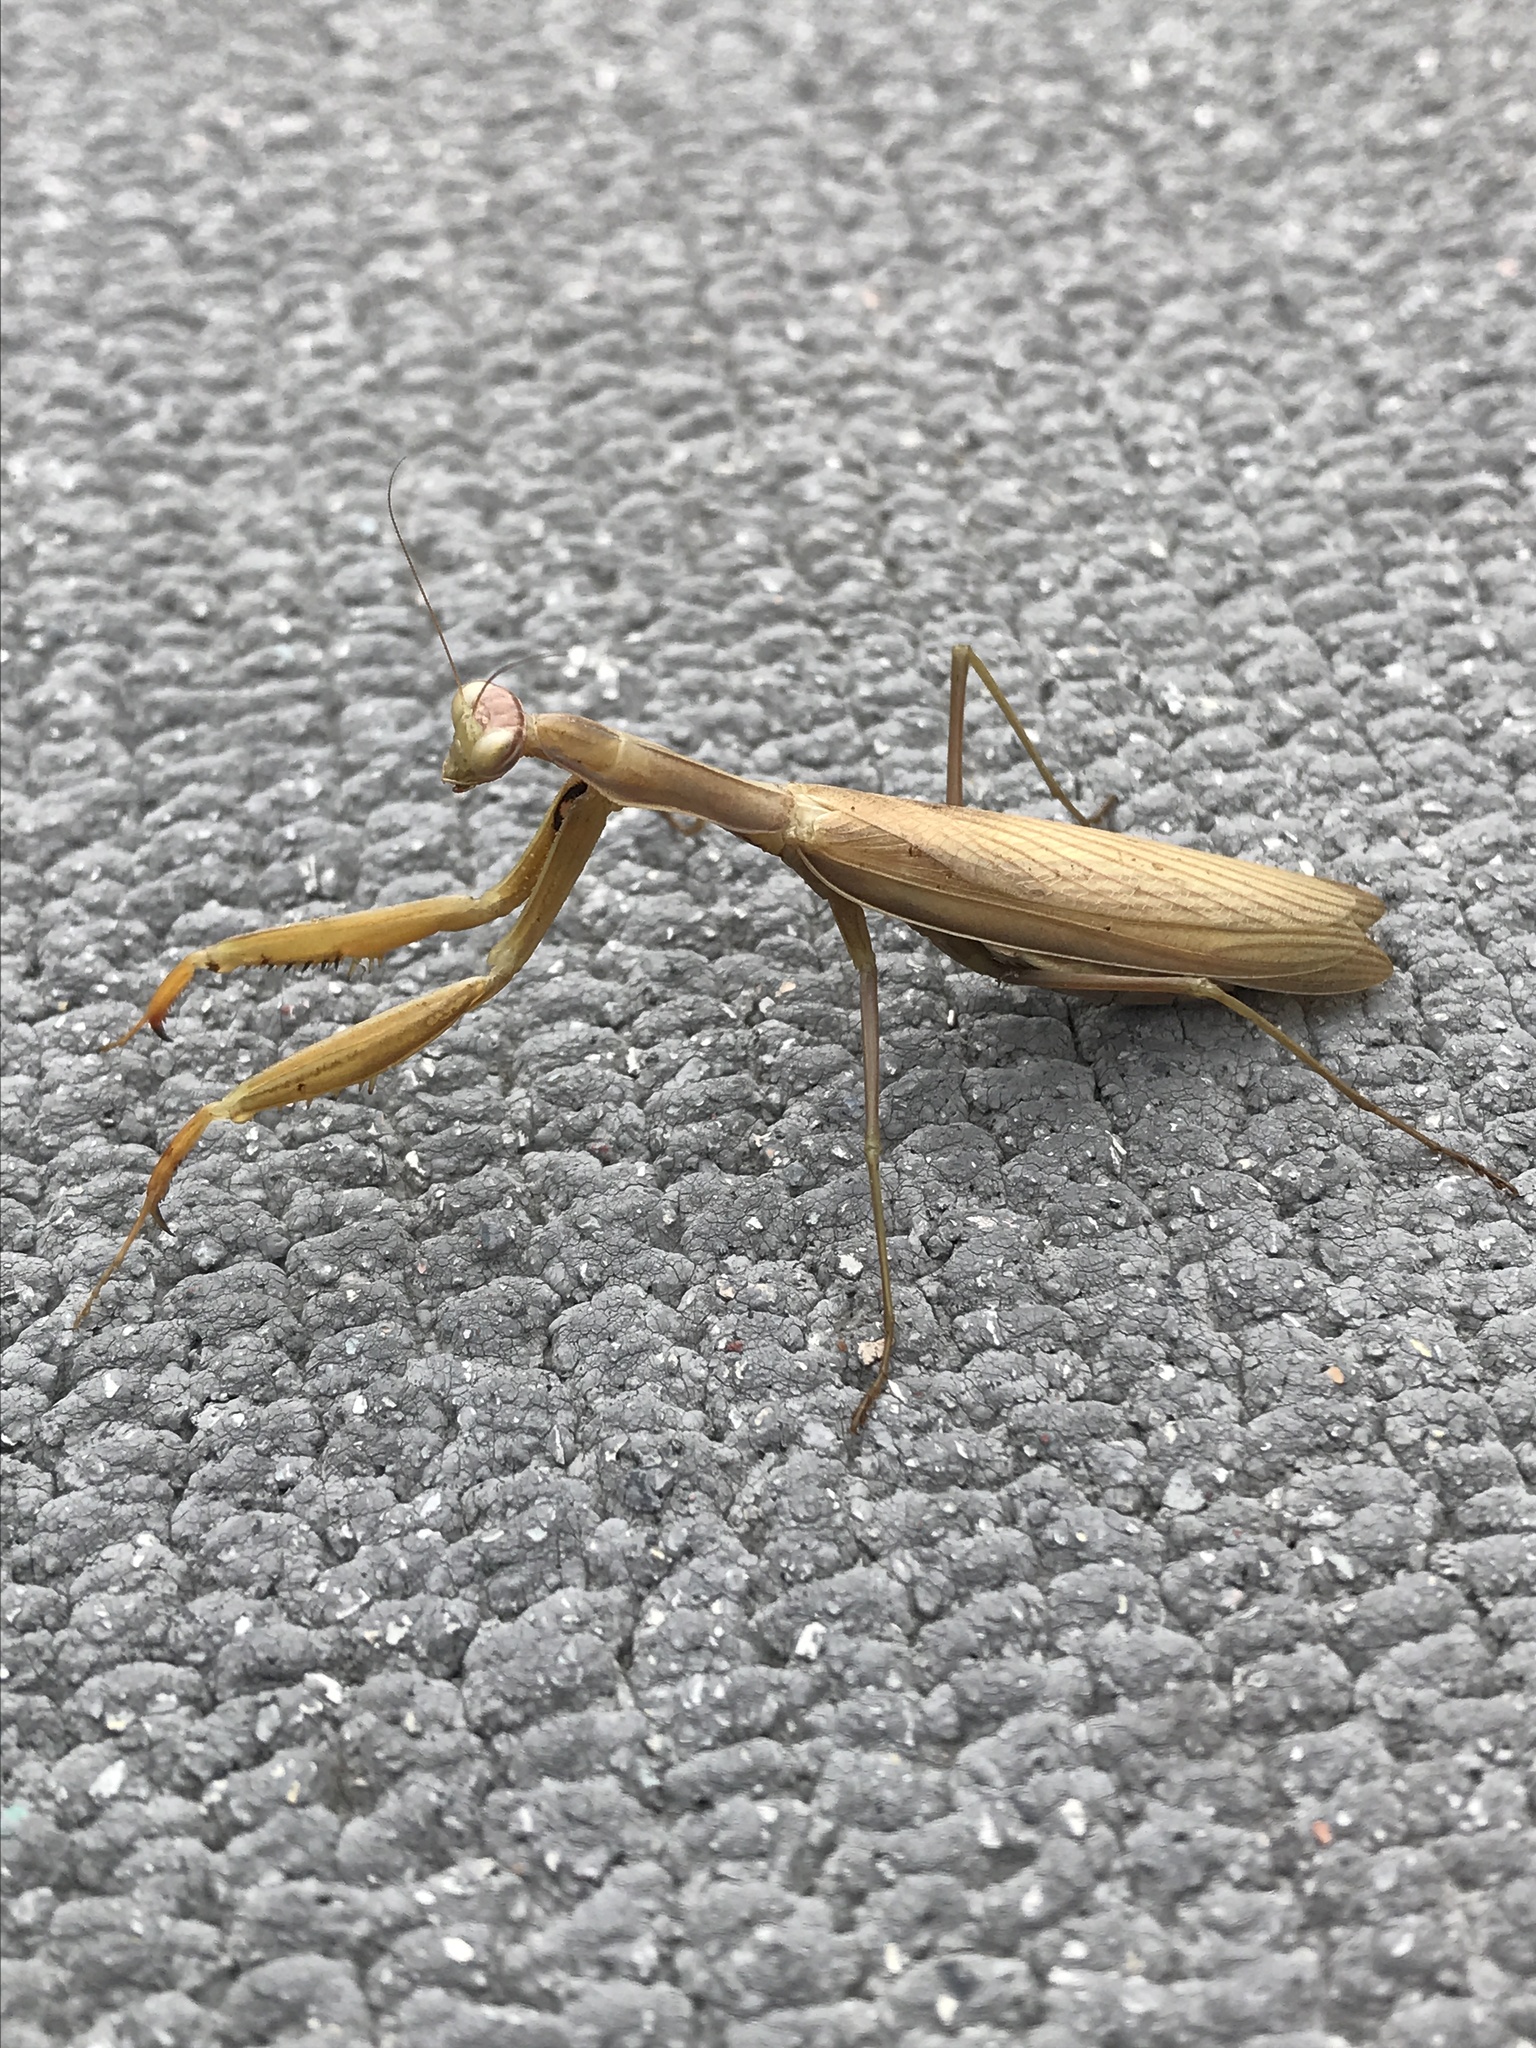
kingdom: Animalia
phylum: Arthropoda
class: Insecta
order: Mantodea
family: Mantidae
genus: Mantis
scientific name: Mantis religiosa
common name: Praying mantis
